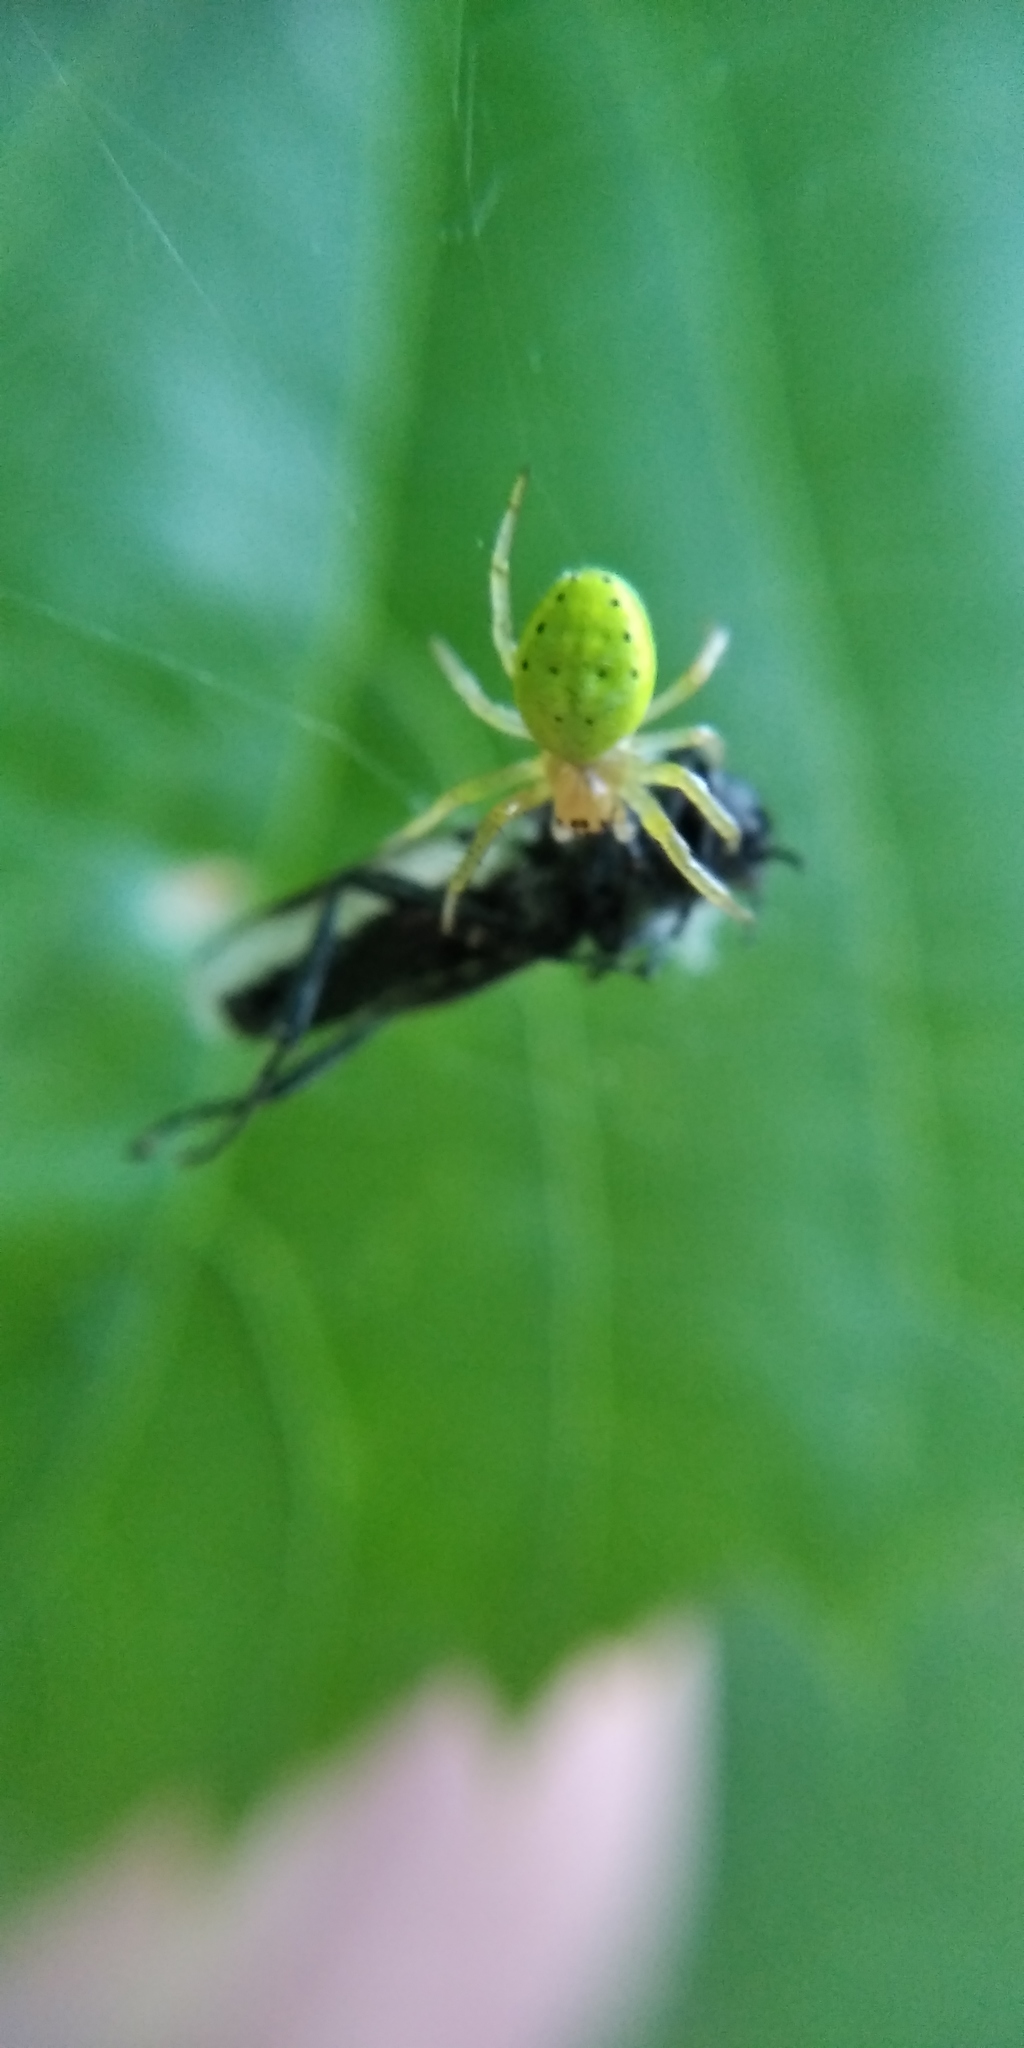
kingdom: Animalia
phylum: Arthropoda
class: Arachnida
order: Araneae
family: Araneidae
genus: Araniella
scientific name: Araniella cucurbitina
